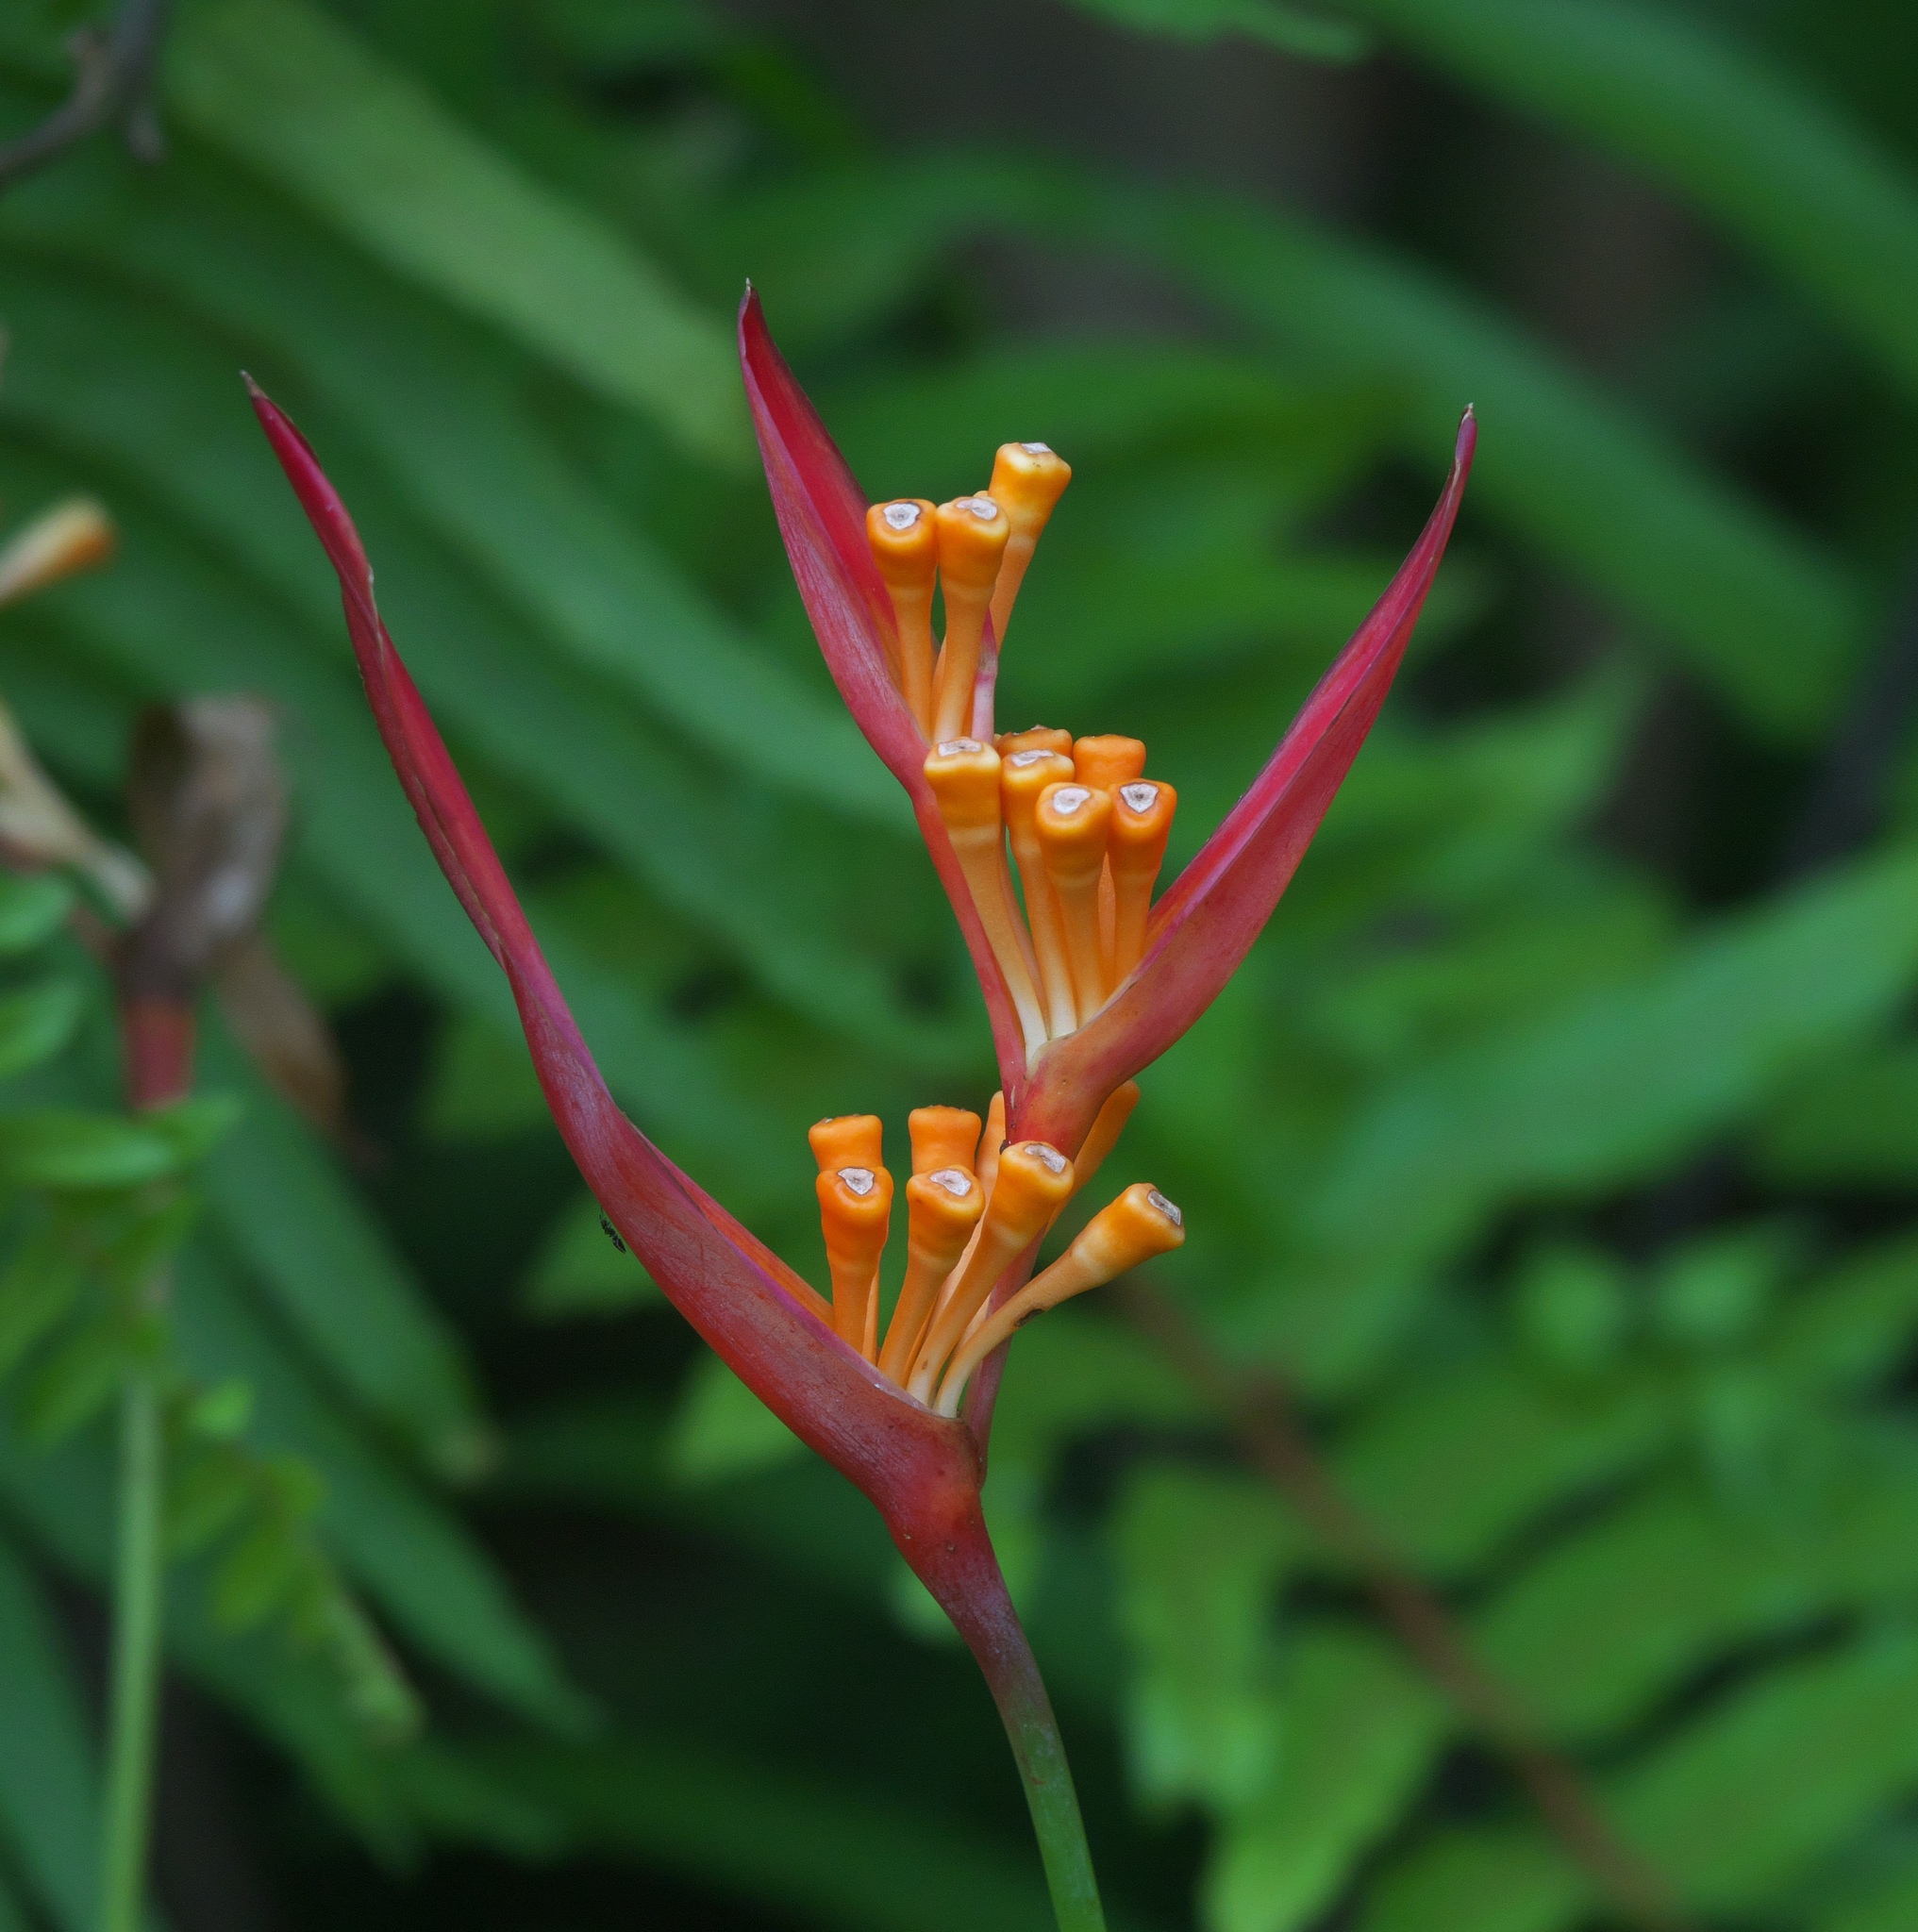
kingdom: Plantae
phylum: Tracheophyta
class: Liliopsida
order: Zingiberales
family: Heliconiaceae
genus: Heliconia
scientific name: Heliconia psittacorum
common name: Parrot's-flower
